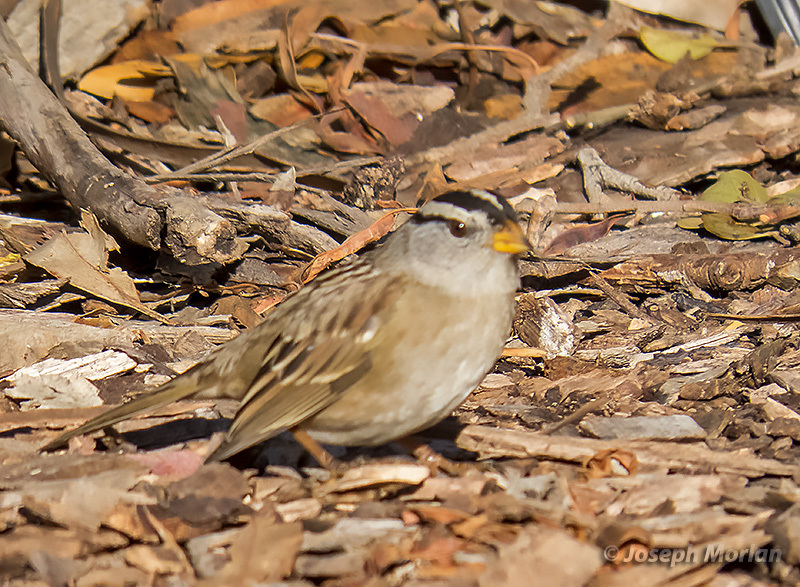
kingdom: Animalia
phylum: Chordata
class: Aves
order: Passeriformes
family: Passerellidae
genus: Zonotrichia
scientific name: Zonotrichia leucophrys
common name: White-crowned sparrow
